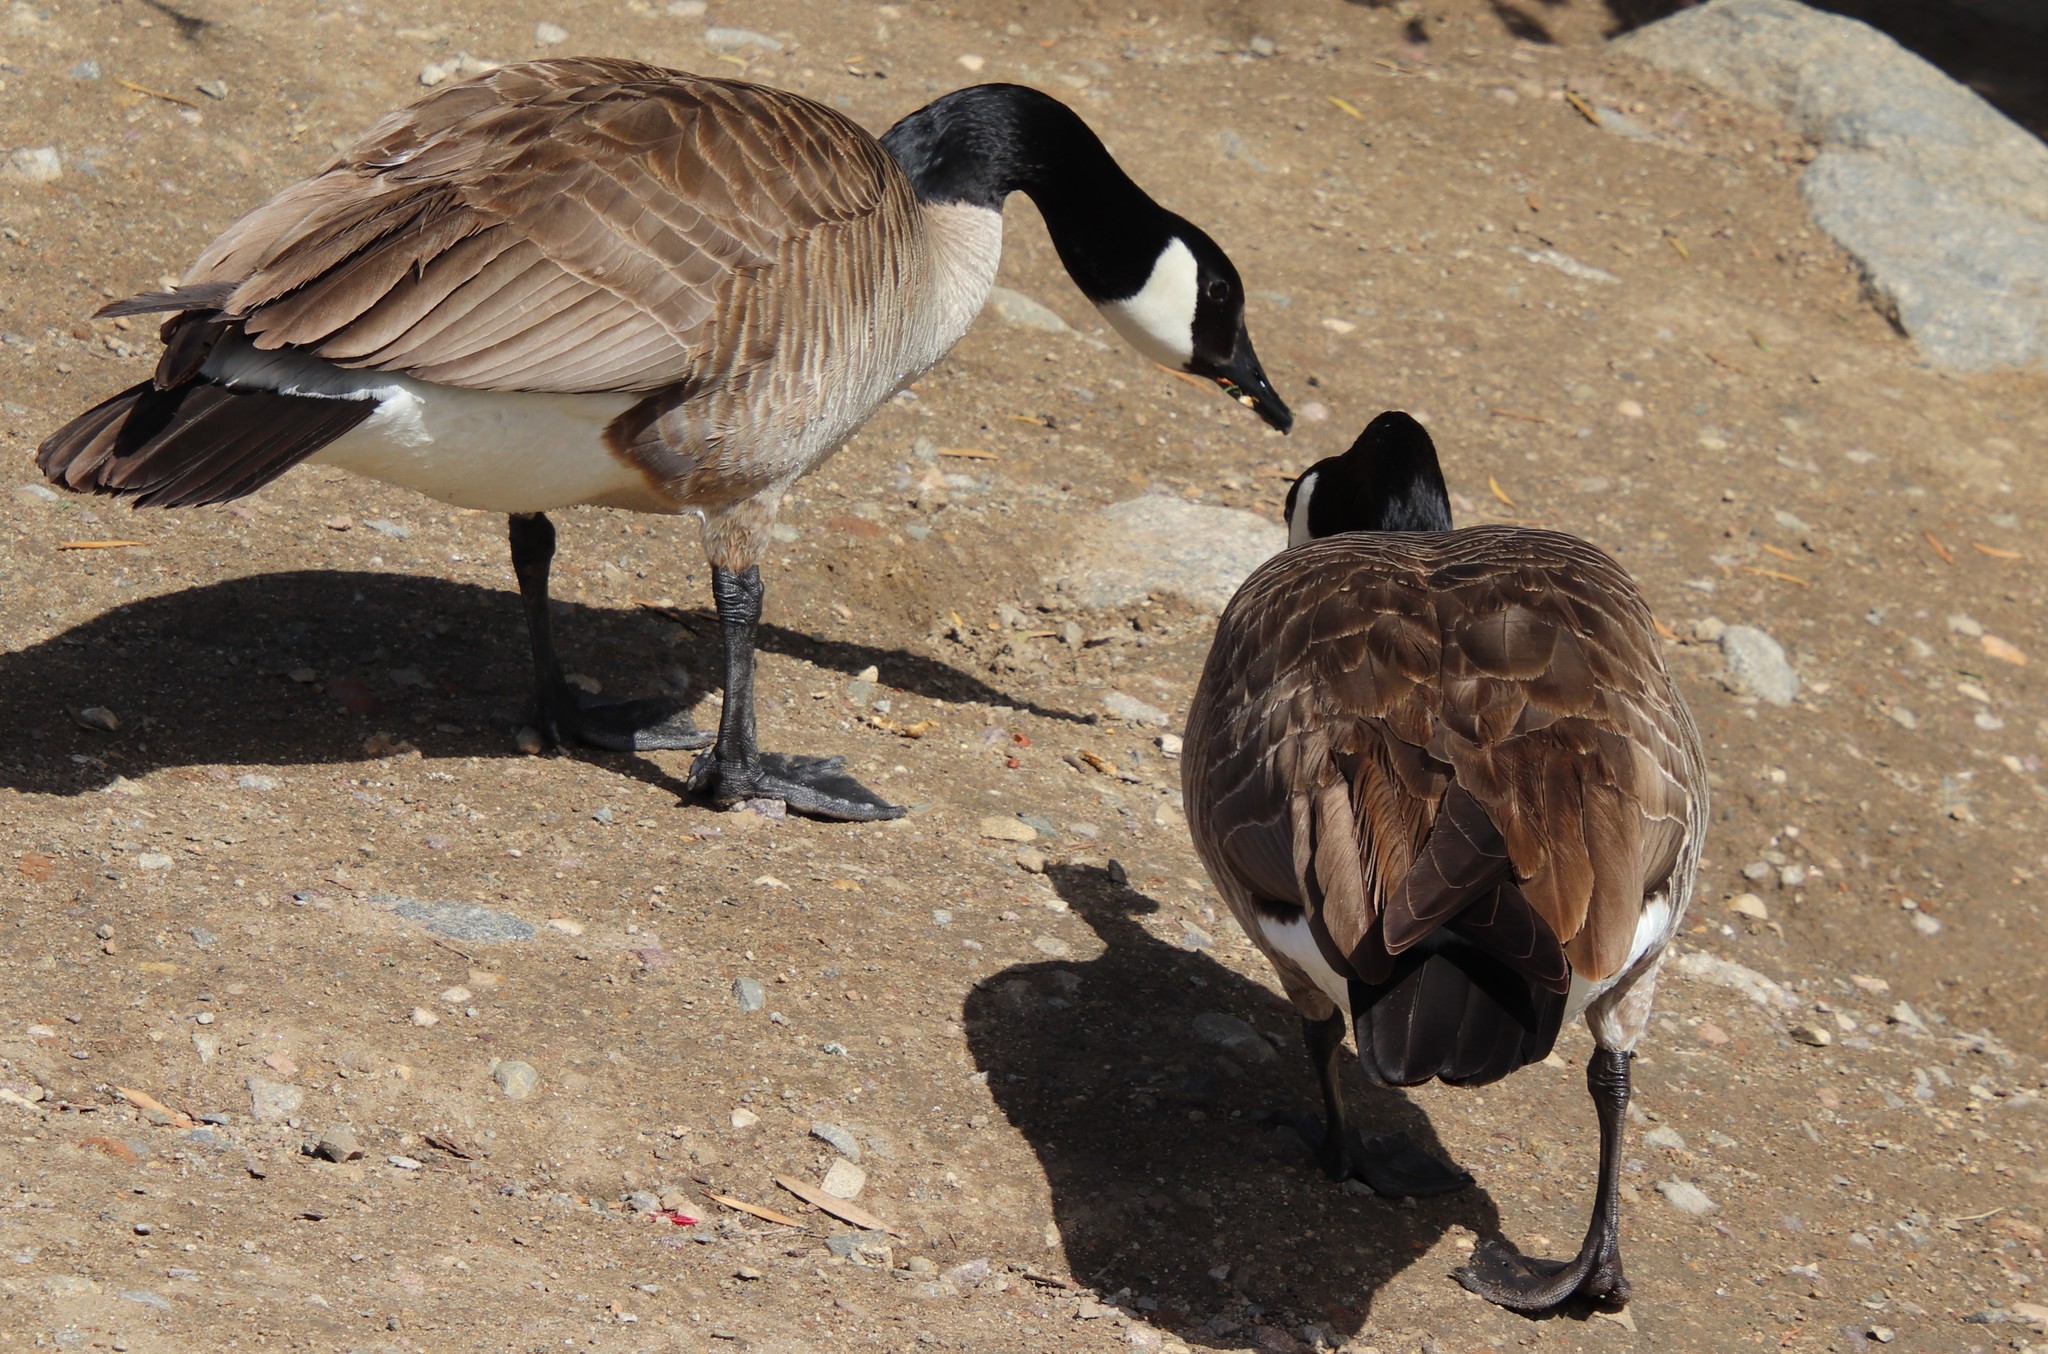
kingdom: Animalia
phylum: Chordata
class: Aves
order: Anseriformes
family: Anatidae
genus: Branta
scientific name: Branta canadensis
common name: Canada goose
